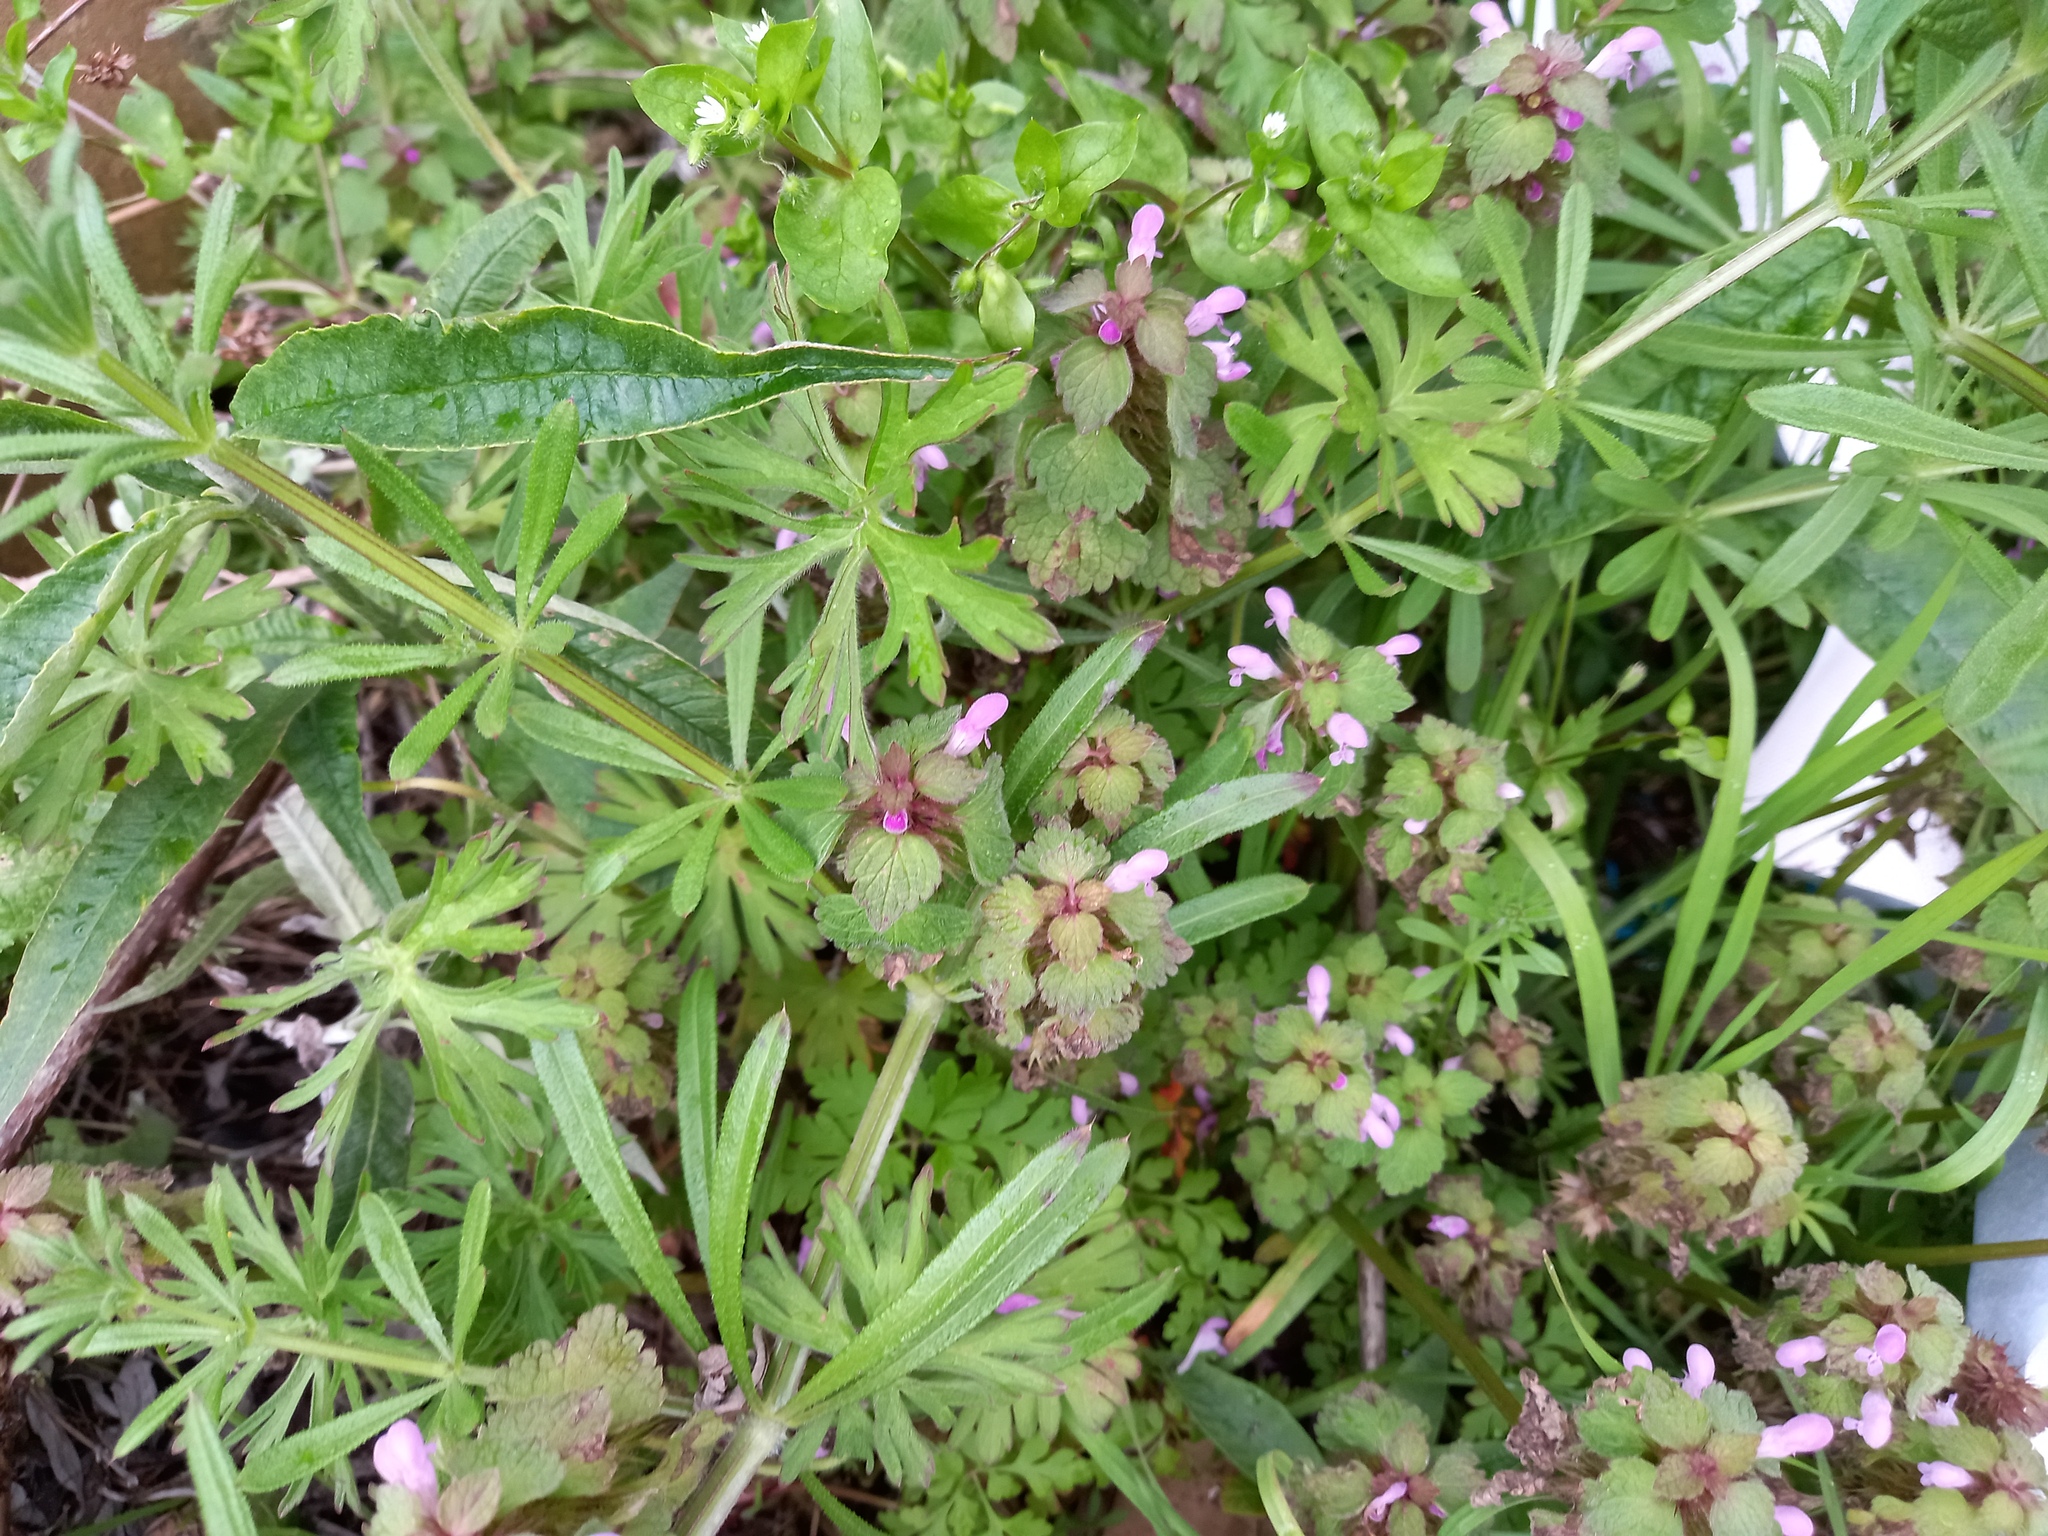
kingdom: Plantae
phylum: Tracheophyta
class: Magnoliopsida
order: Lamiales
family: Lamiaceae
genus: Lamium
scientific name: Lamium purpureum
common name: Red dead-nettle
